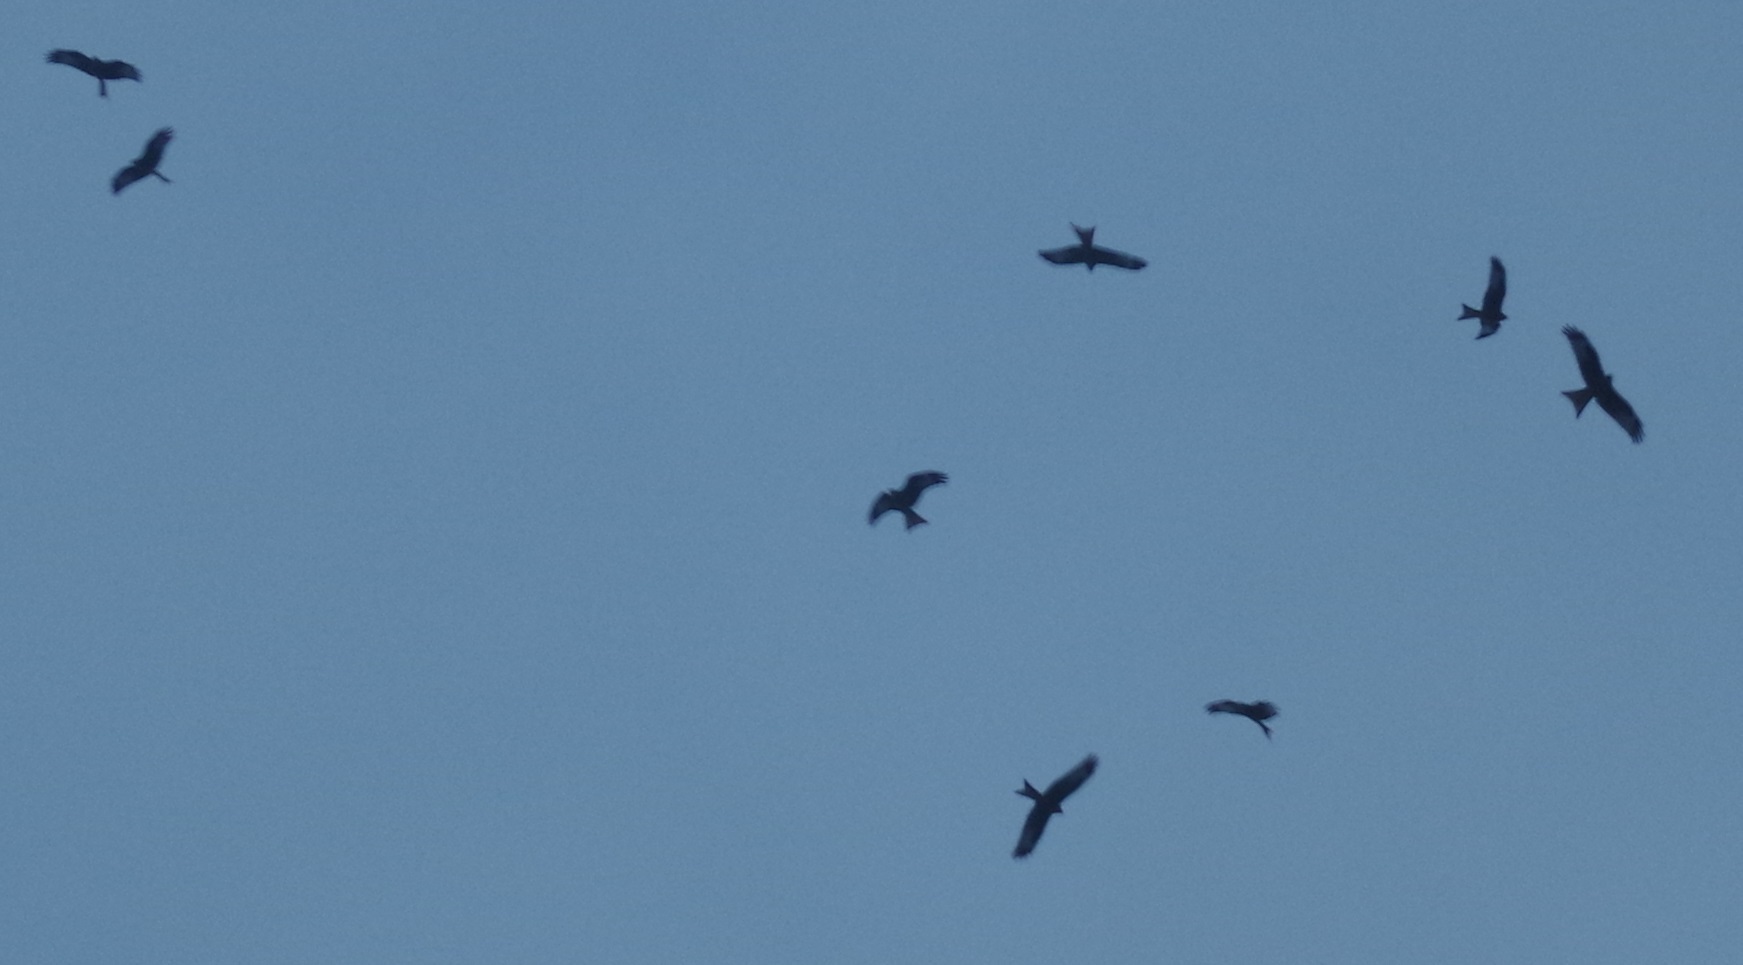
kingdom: Animalia
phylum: Chordata
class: Aves
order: Accipitriformes
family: Accipitridae
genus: Milvus
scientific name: Milvus milvus
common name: Red kite
